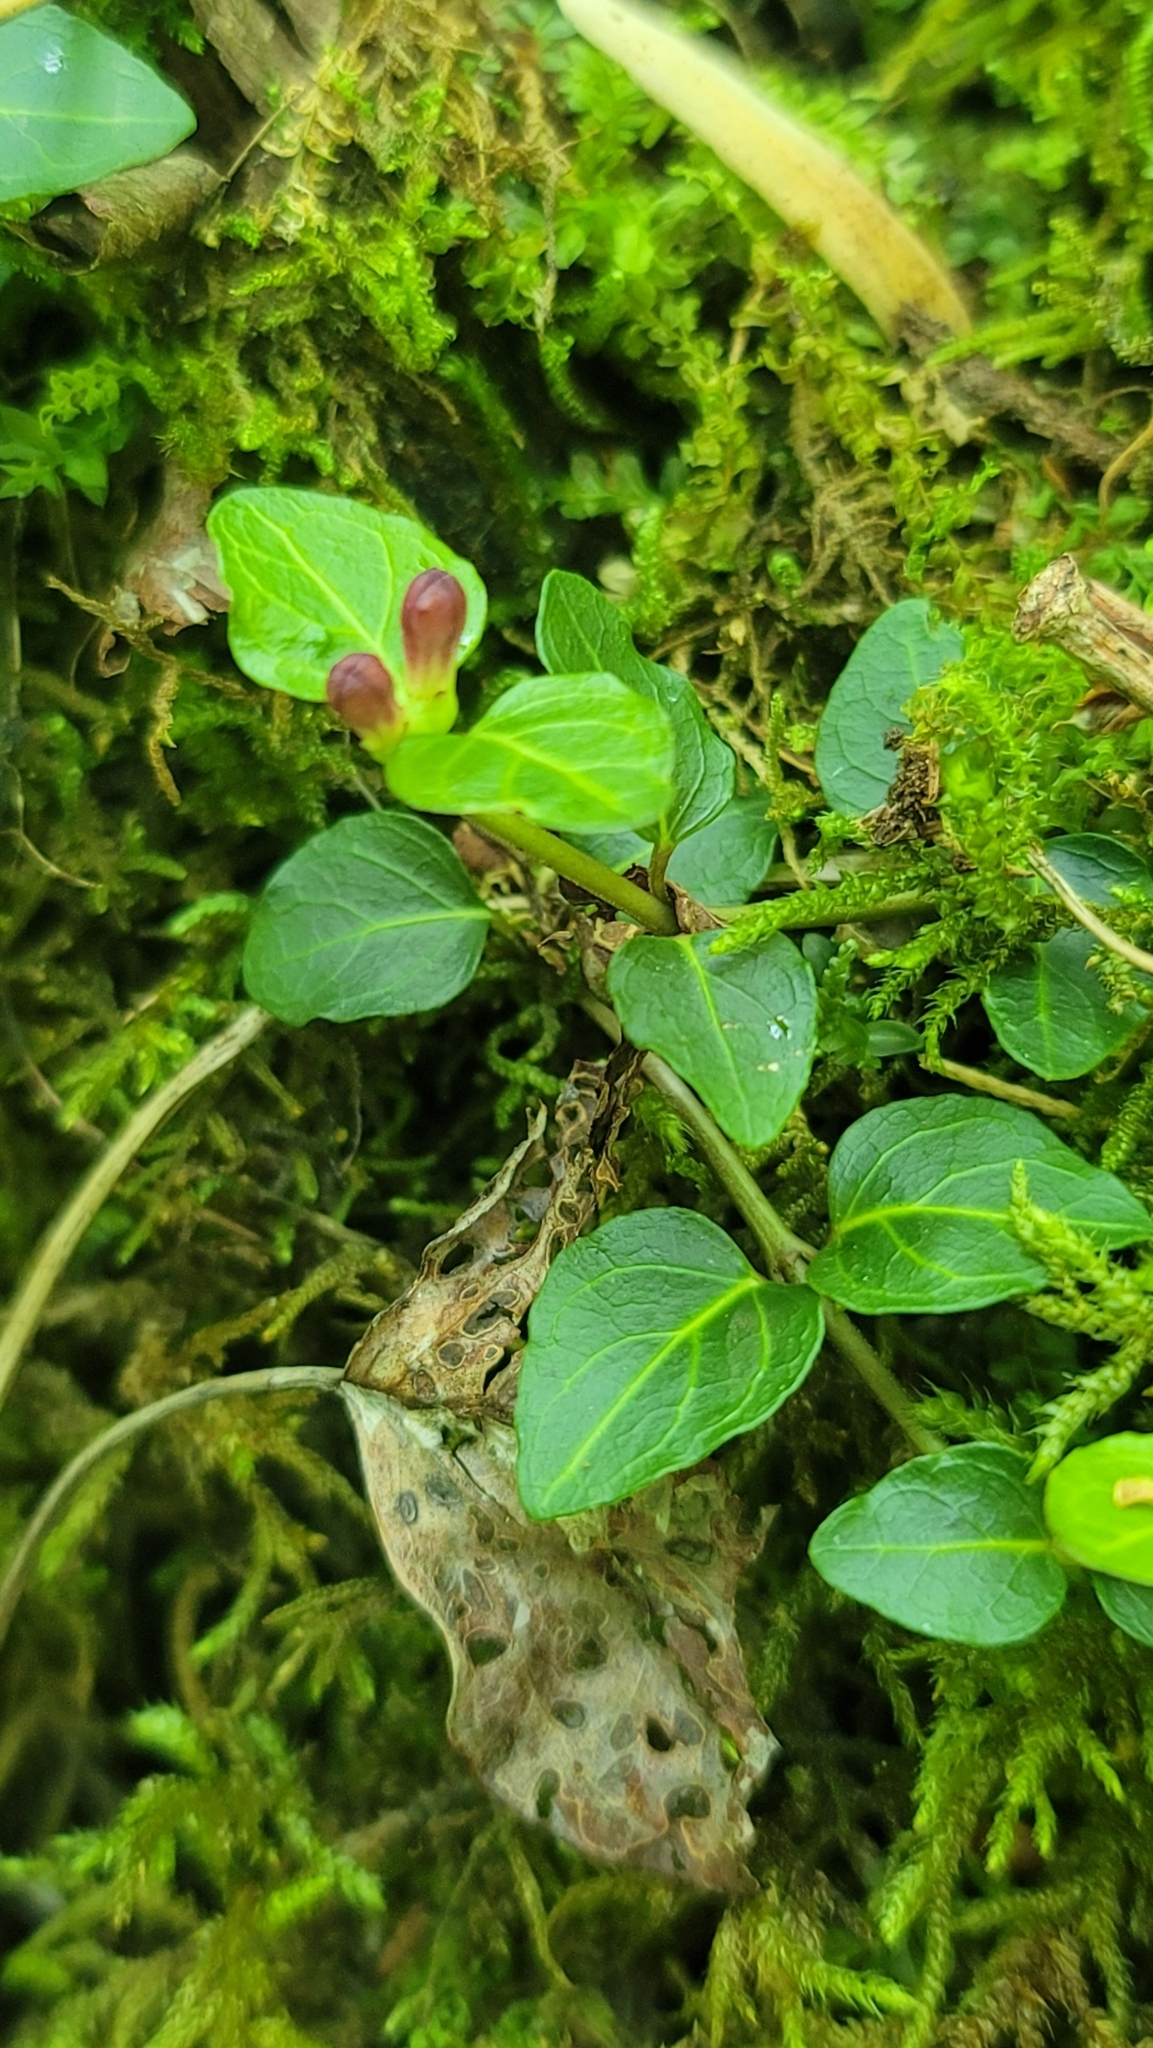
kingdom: Plantae
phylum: Tracheophyta
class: Magnoliopsida
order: Gentianales
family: Rubiaceae
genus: Mitchella
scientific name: Mitchella repens
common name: Partridge-berry
